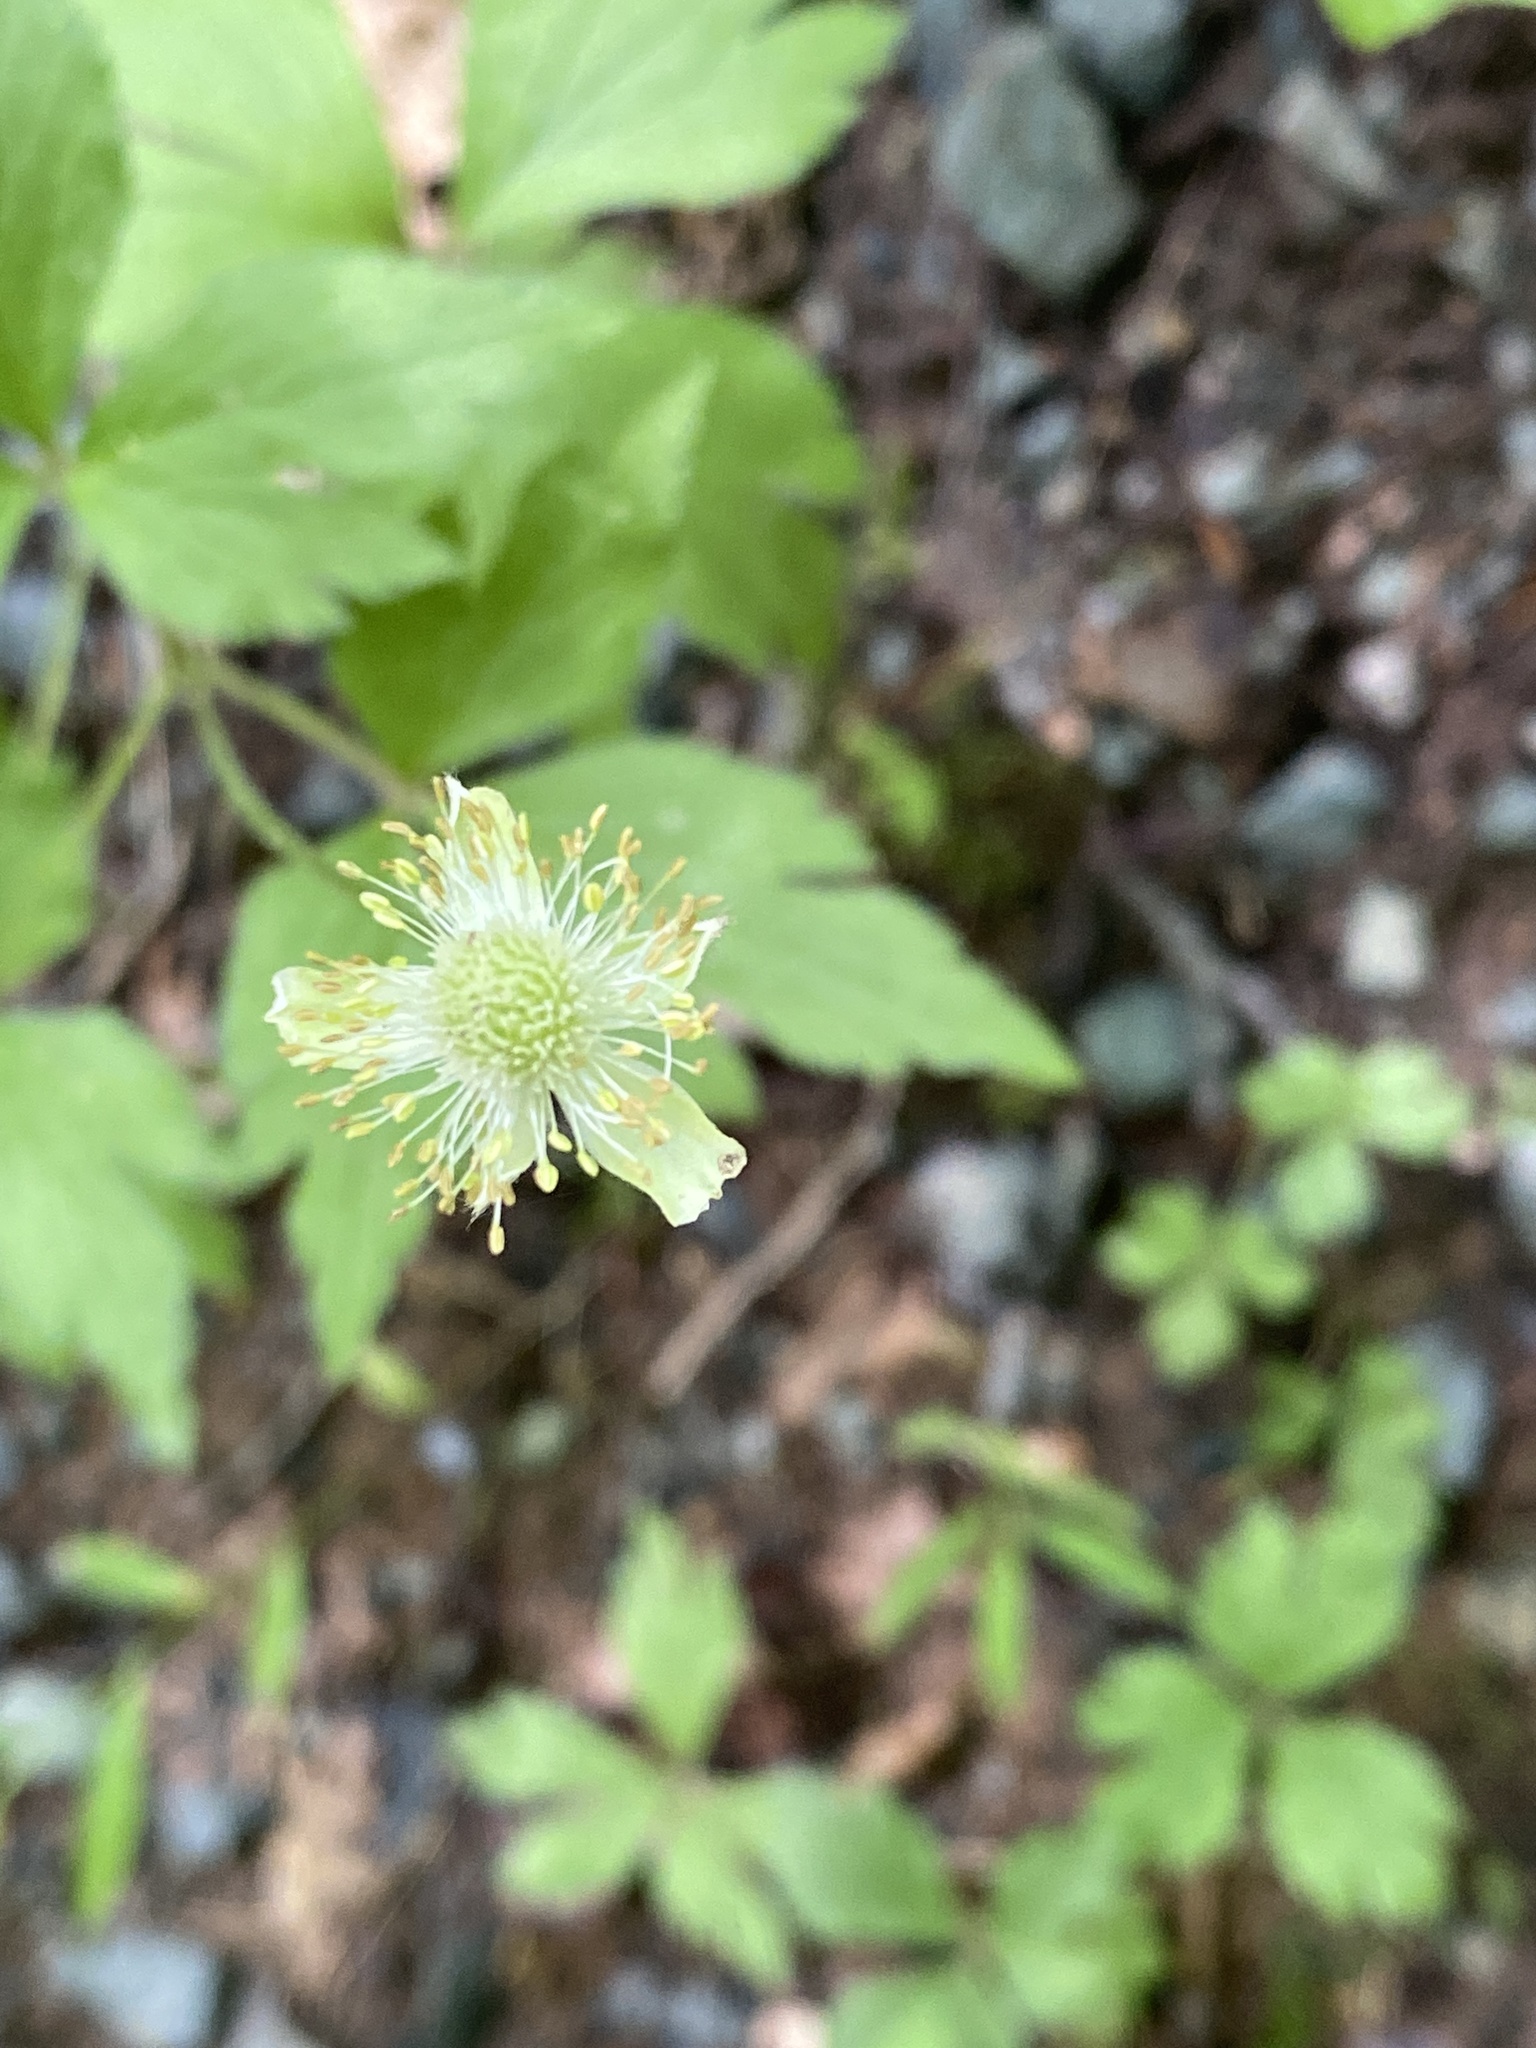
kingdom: Plantae
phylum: Tracheophyta
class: Magnoliopsida
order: Ranunculales
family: Ranunculaceae
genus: Anemone
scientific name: Anemone virginiana
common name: Tall anemone
